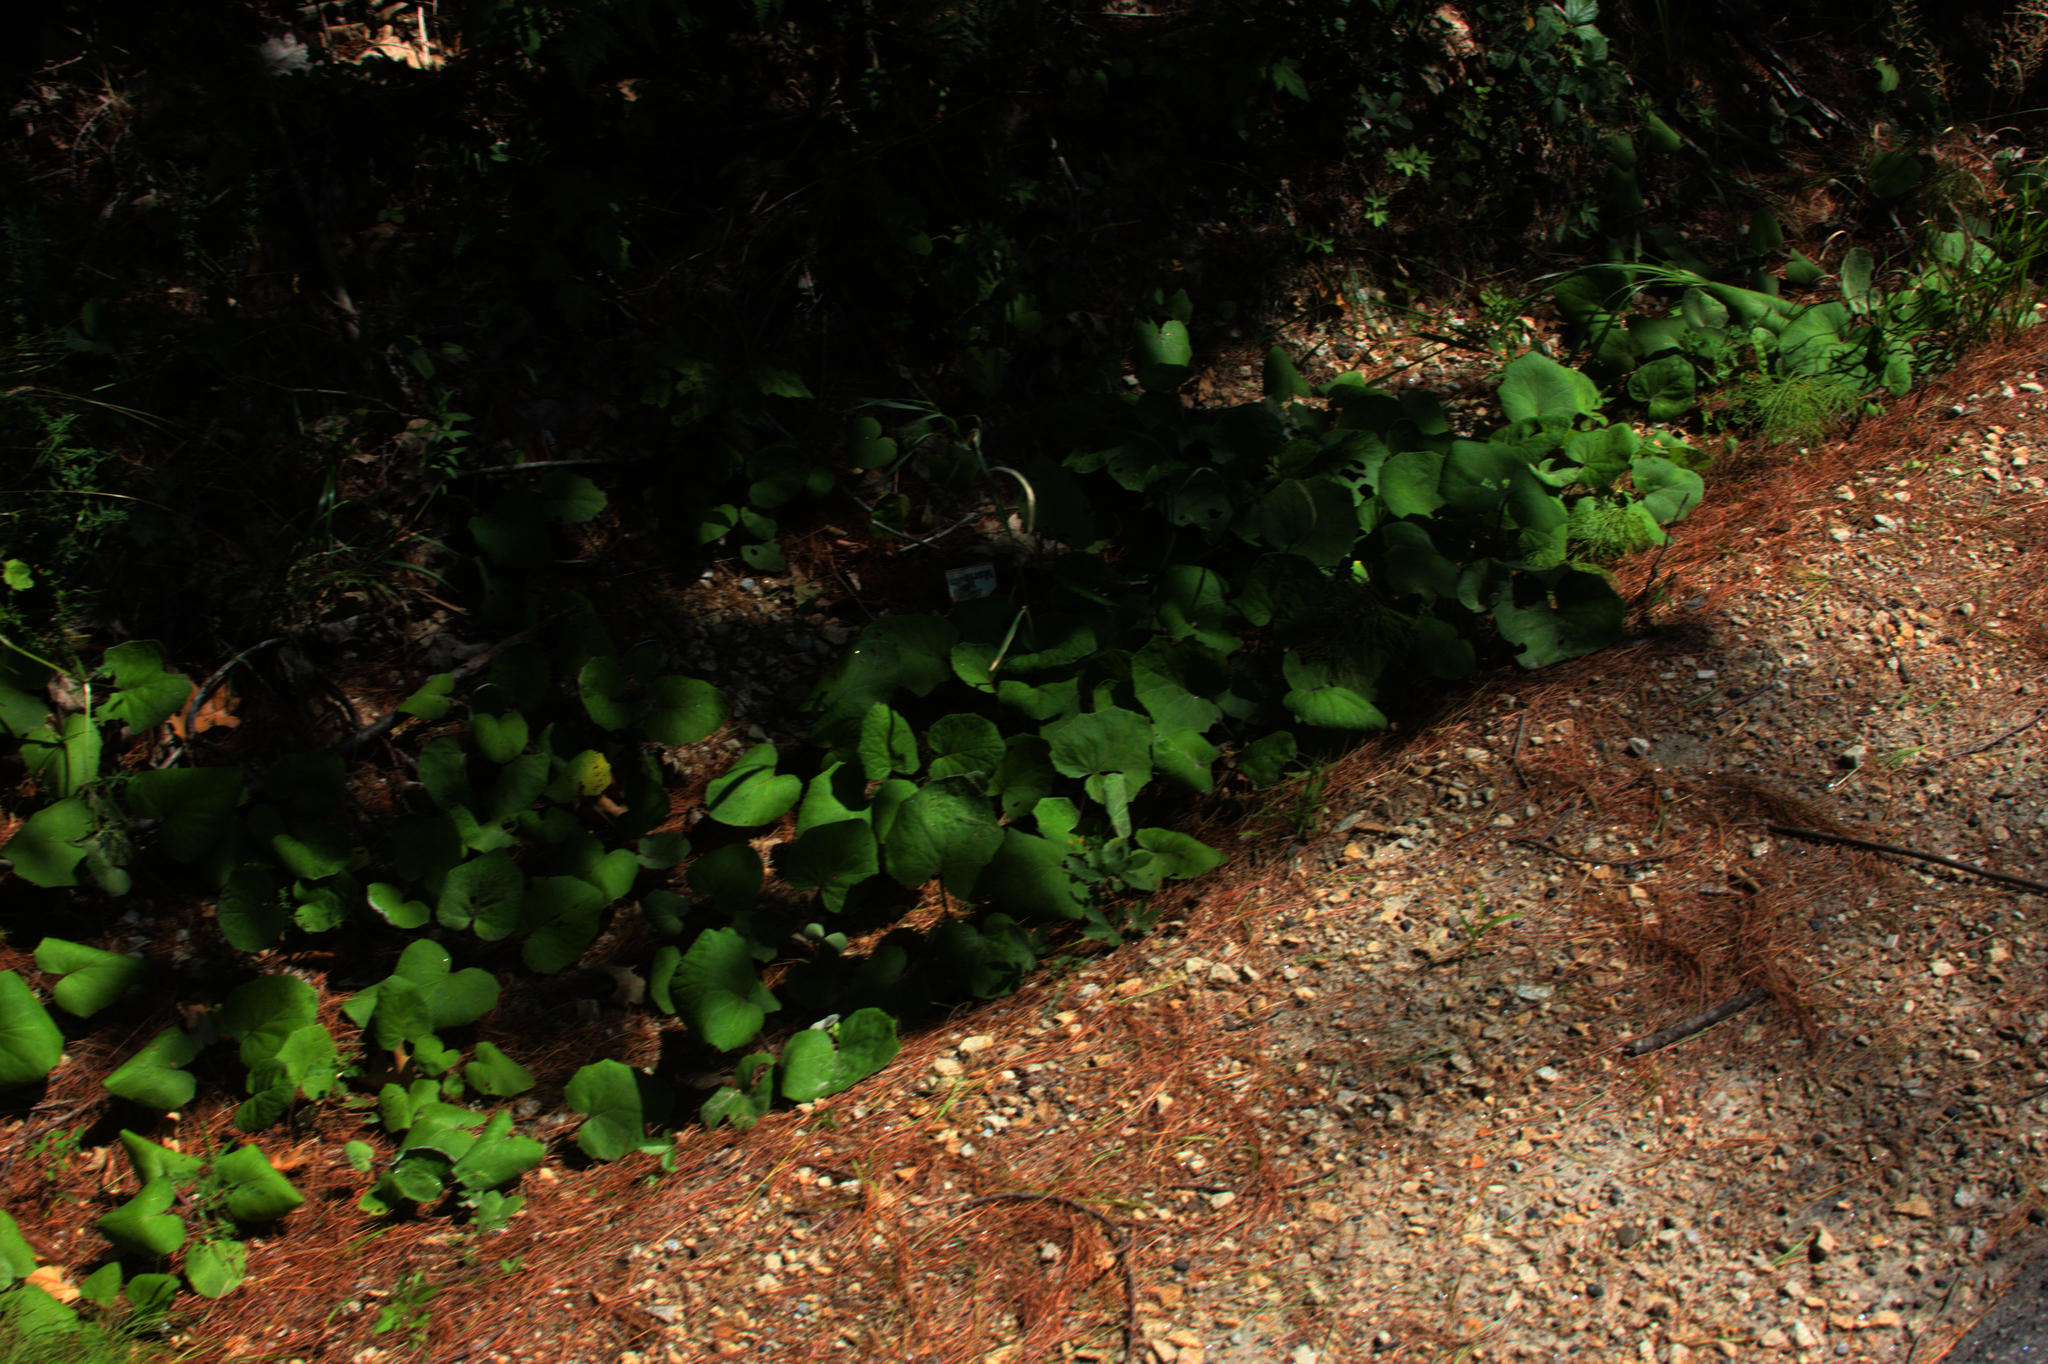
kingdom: Plantae
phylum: Tracheophyta
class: Magnoliopsida
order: Asterales
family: Asteraceae
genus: Tussilago
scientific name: Tussilago farfara
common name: Coltsfoot
